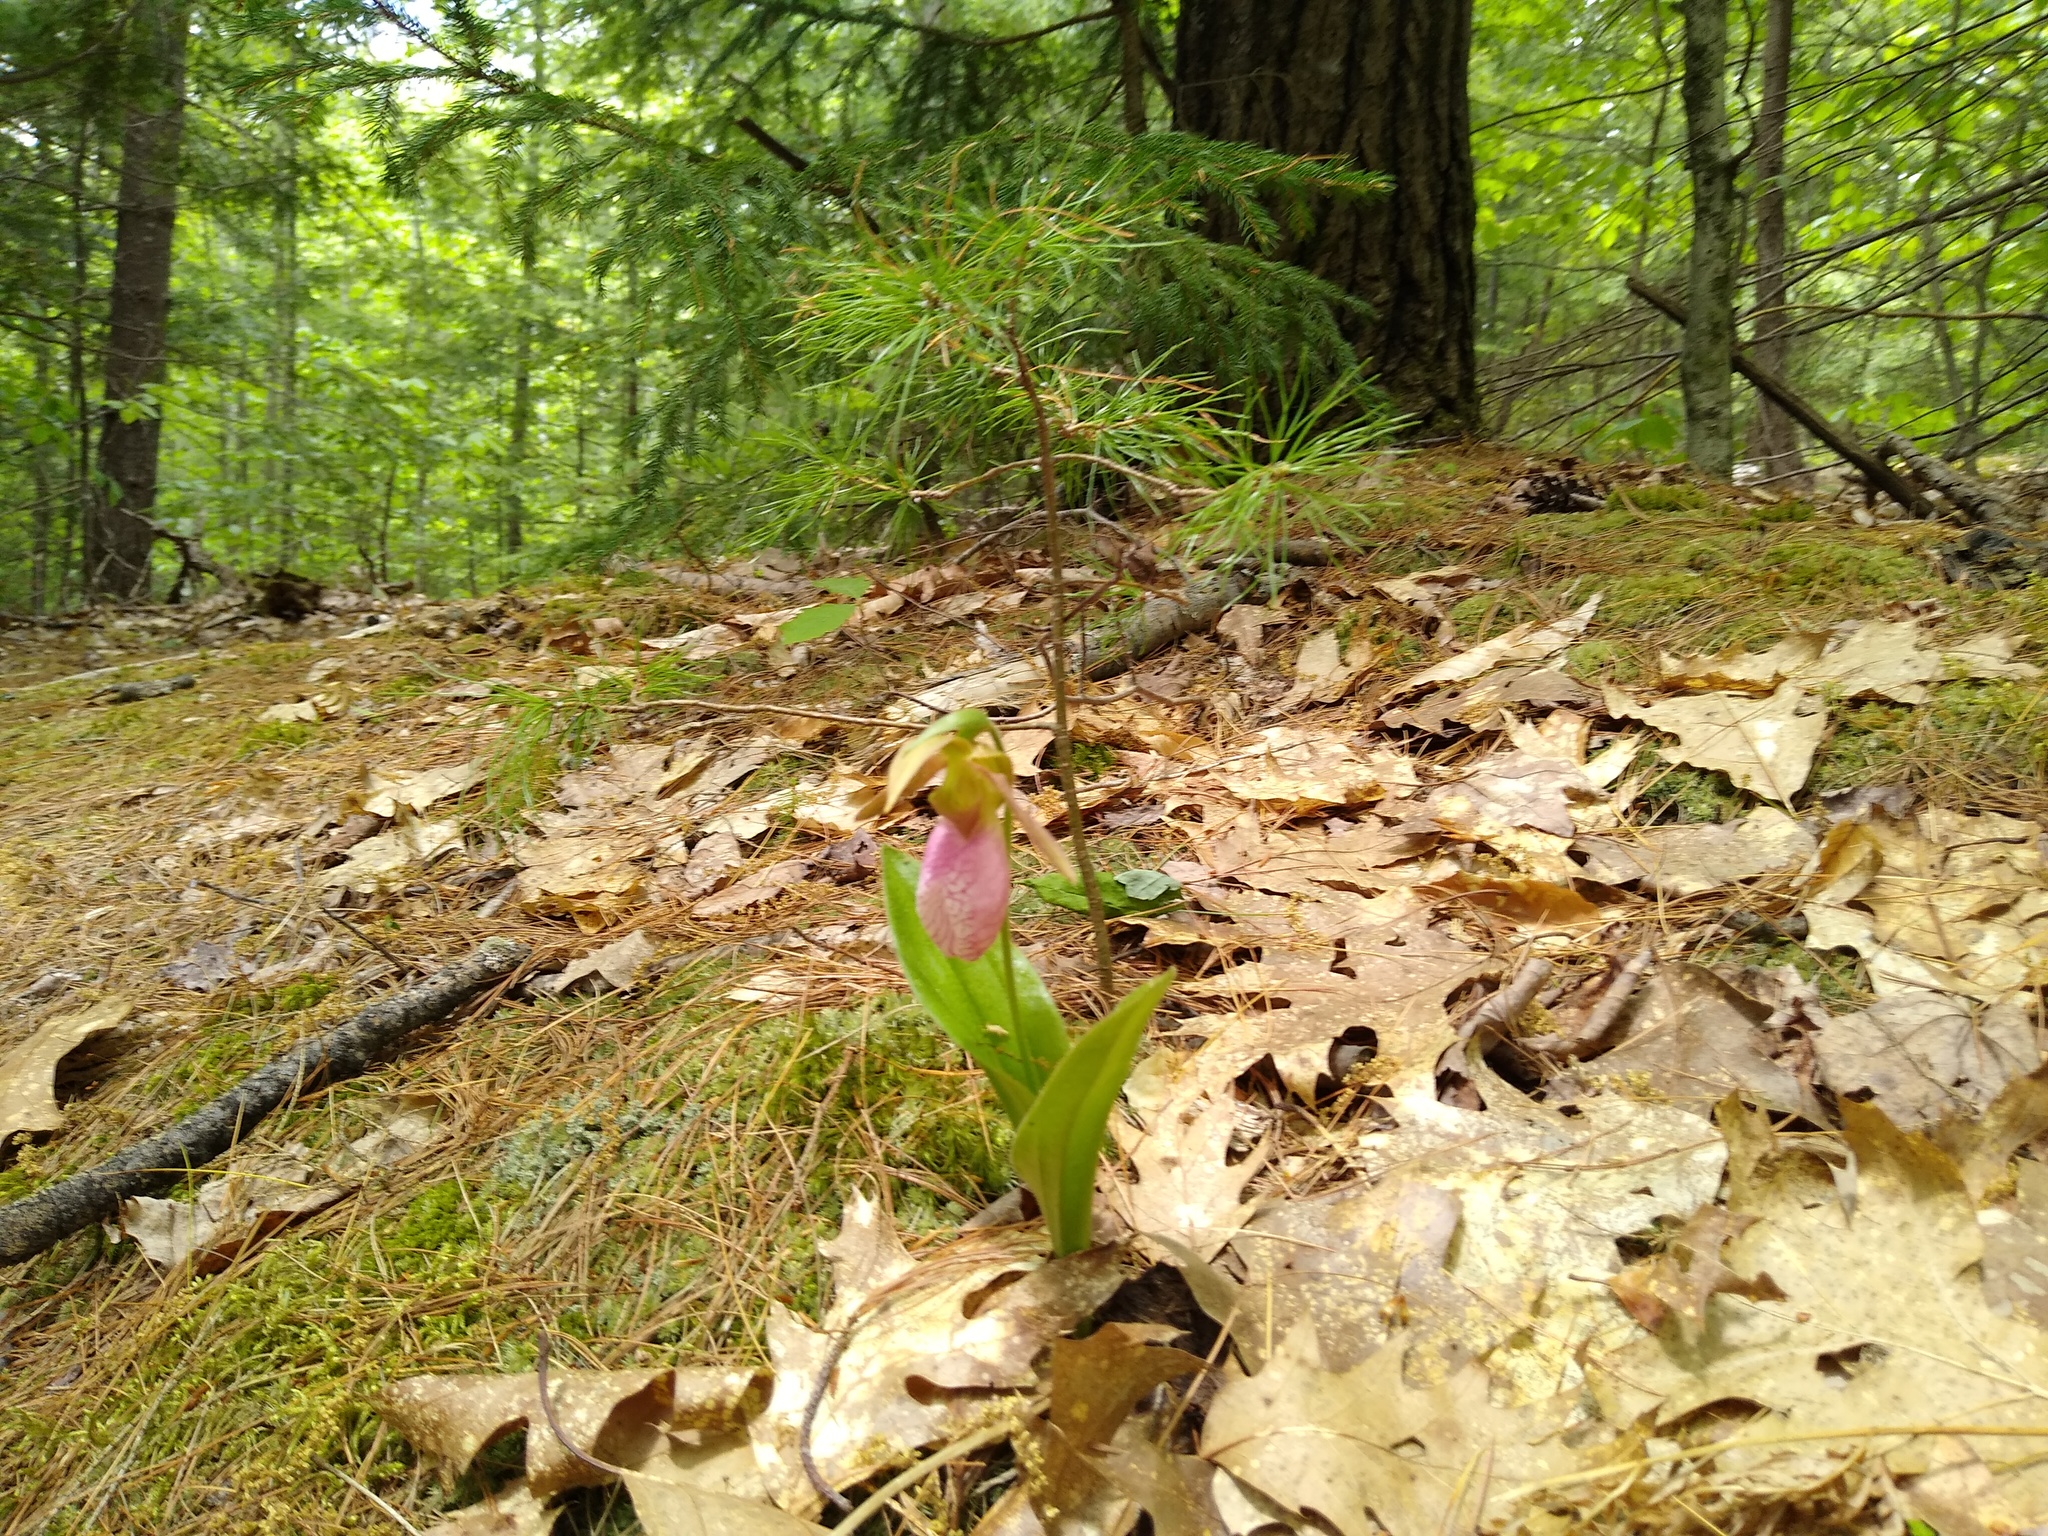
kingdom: Plantae
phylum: Tracheophyta
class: Liliopsida
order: Asparagales
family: Orchidaceae
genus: Cypripedium
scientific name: Cypripedium acaule
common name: Pink lady's-slipper
